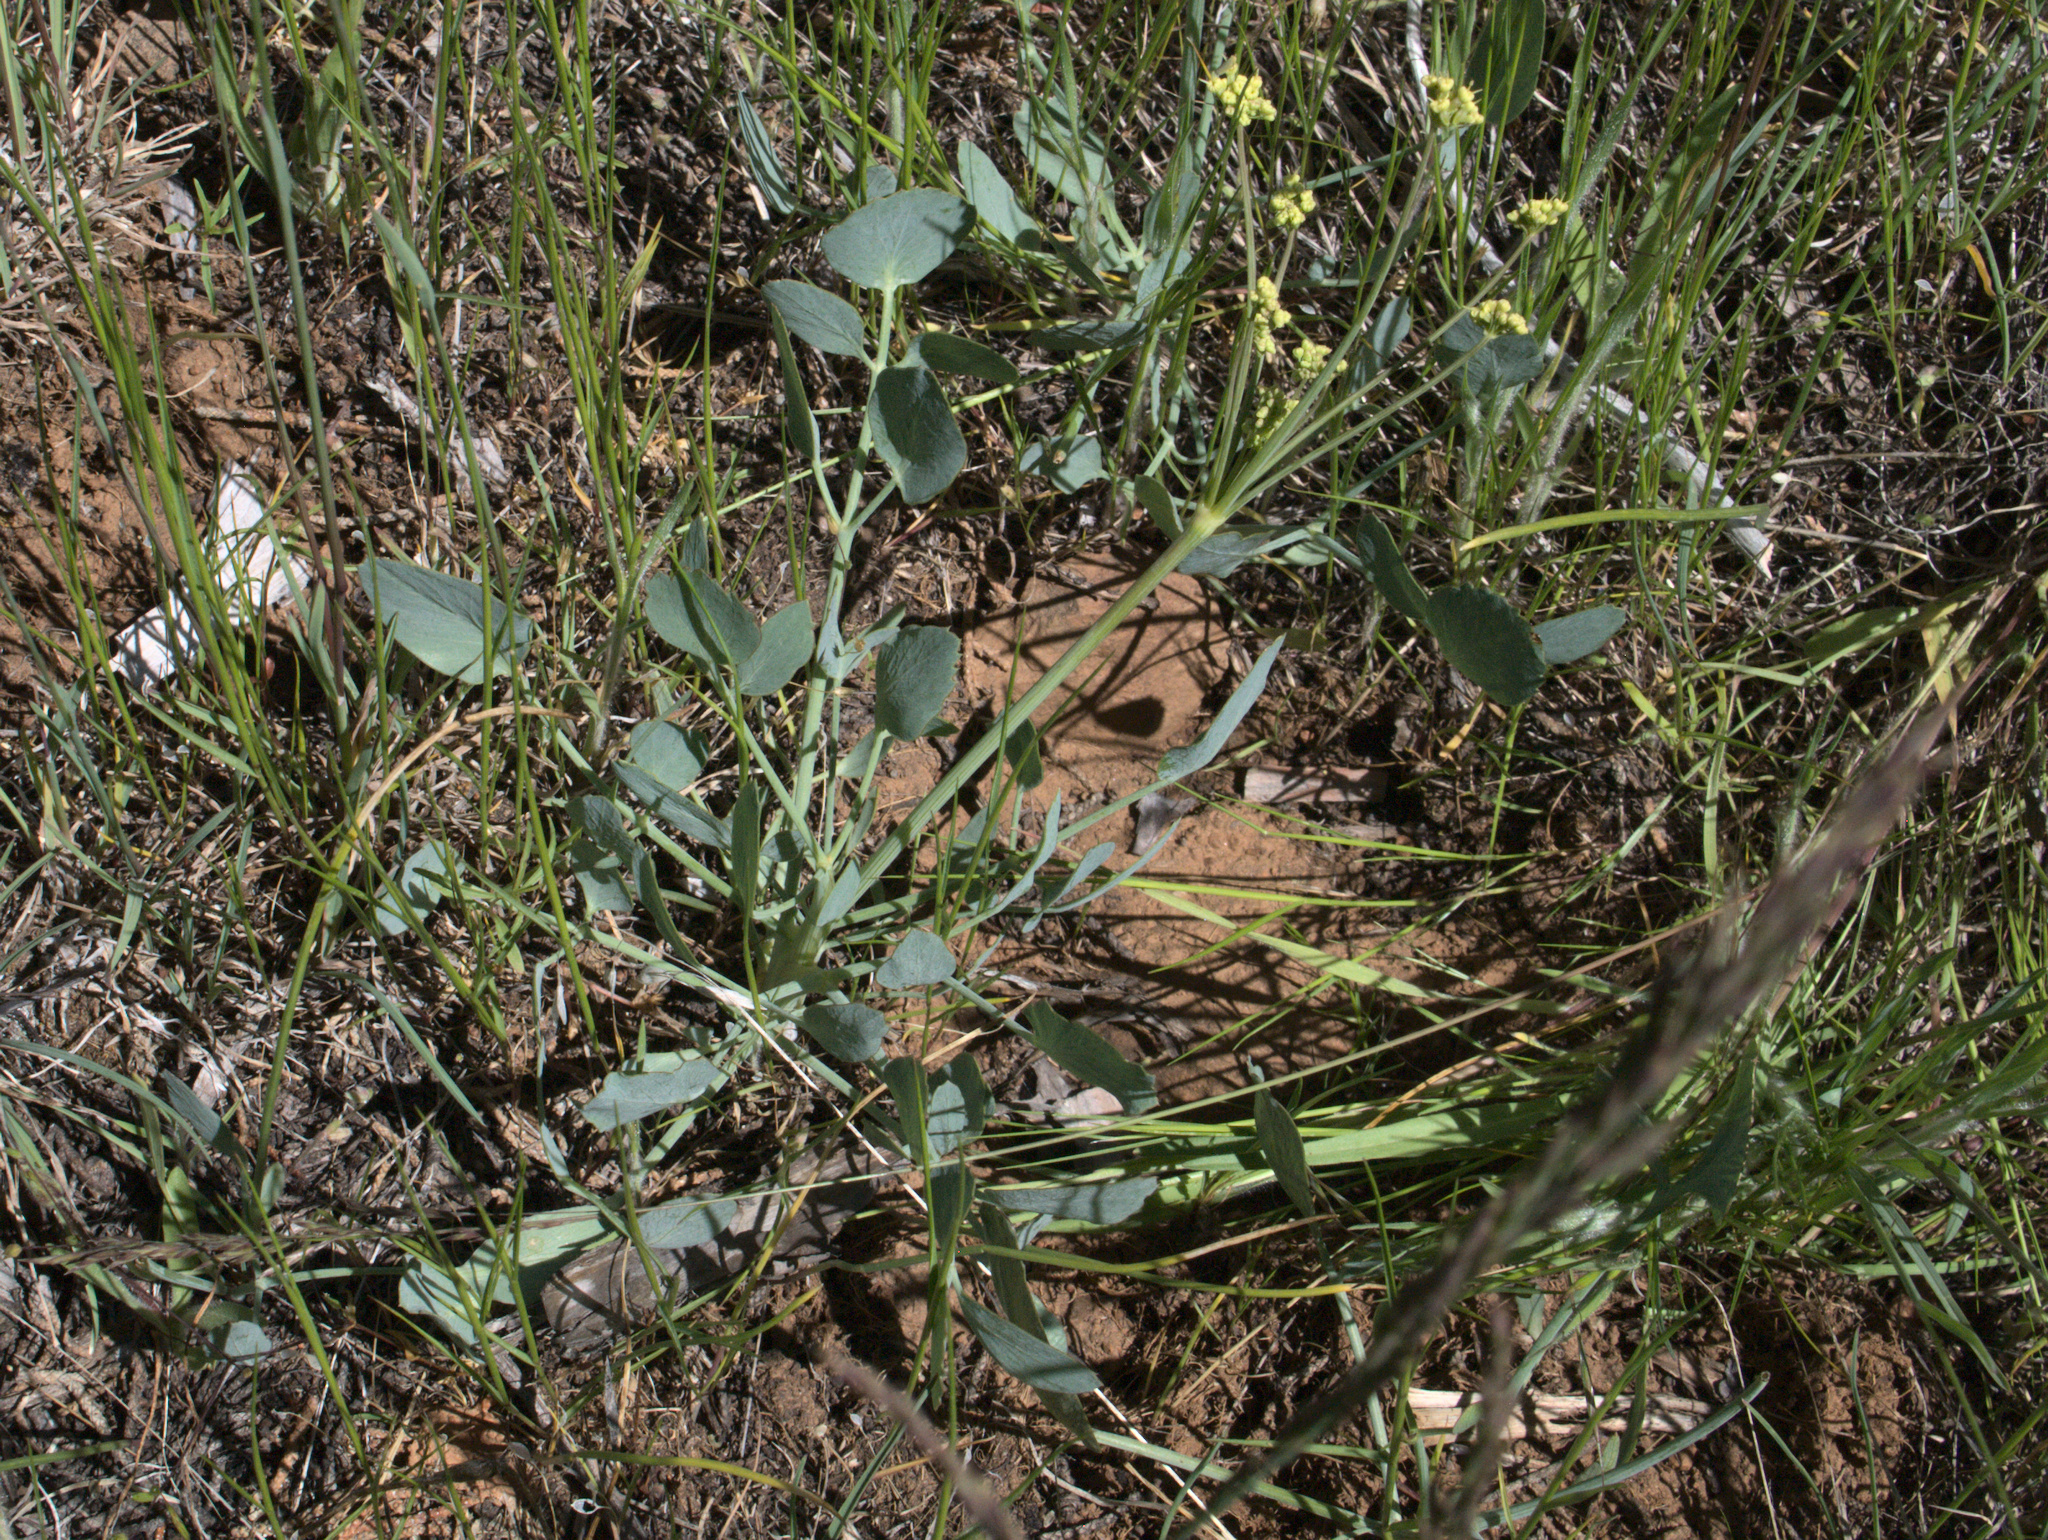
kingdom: Plantae
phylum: Tracheophyta
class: Magnoliopsida
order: Apiales
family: Apiaceae
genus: Lomatium
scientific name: Lomatium nudicaule
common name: Pestle lomatium
